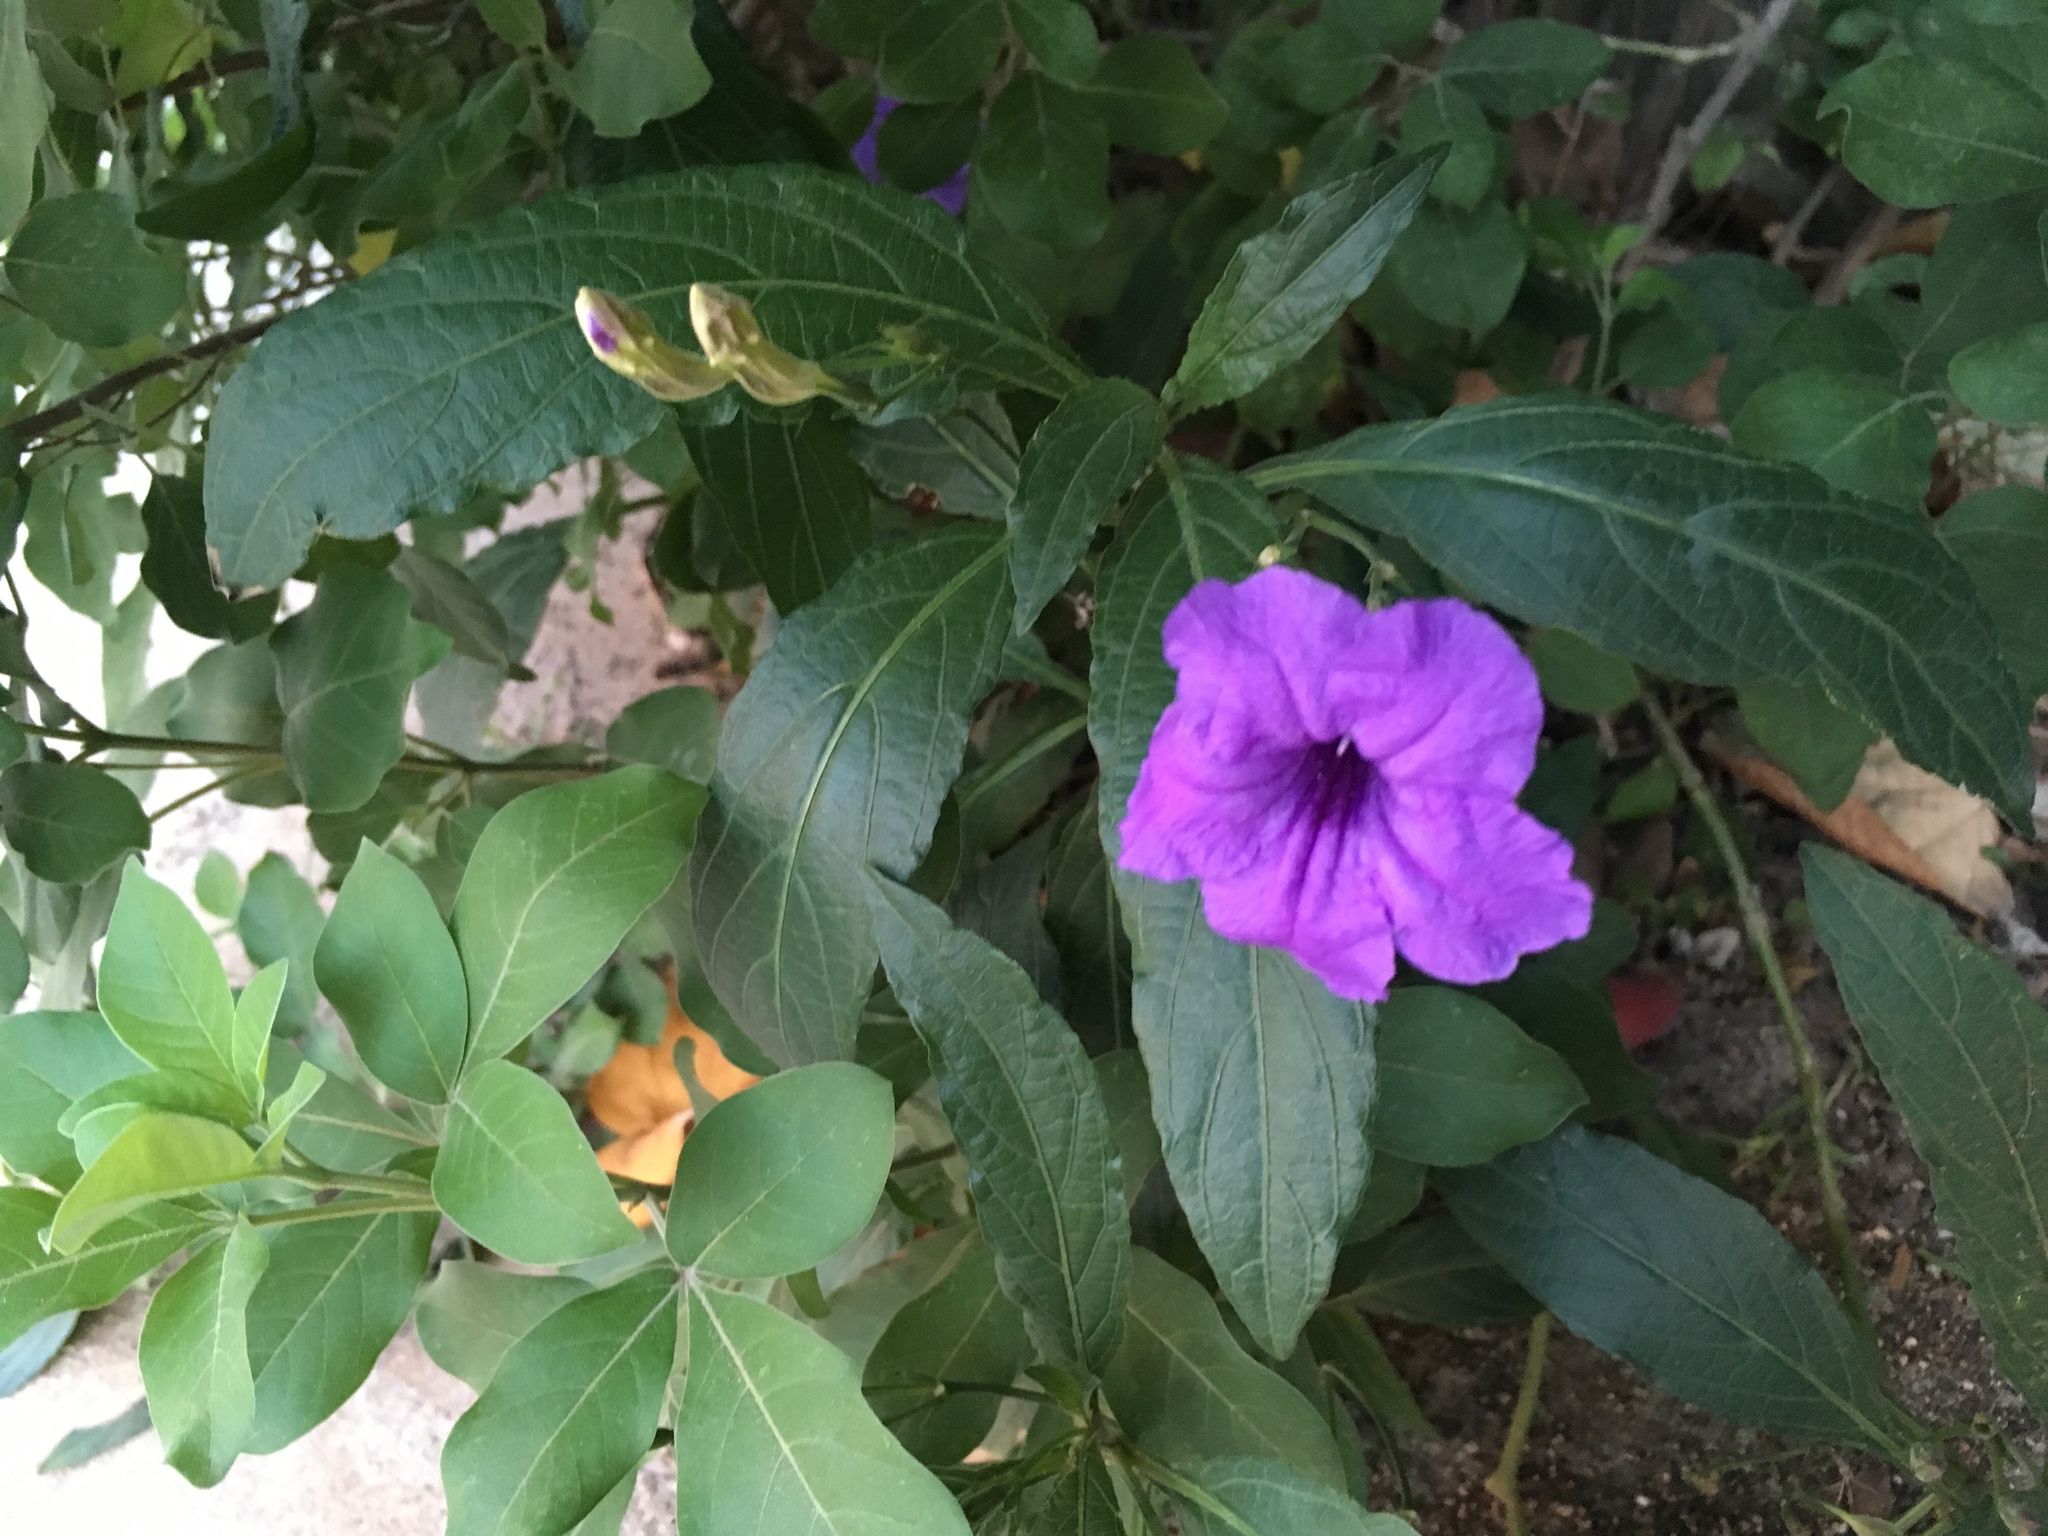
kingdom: Plantae
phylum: Tracheophyta
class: Magnoliopsida
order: Lamiales
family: Acanthaceae
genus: Ruellia
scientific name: Ruellia simplex
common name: Softseed wild petunia
